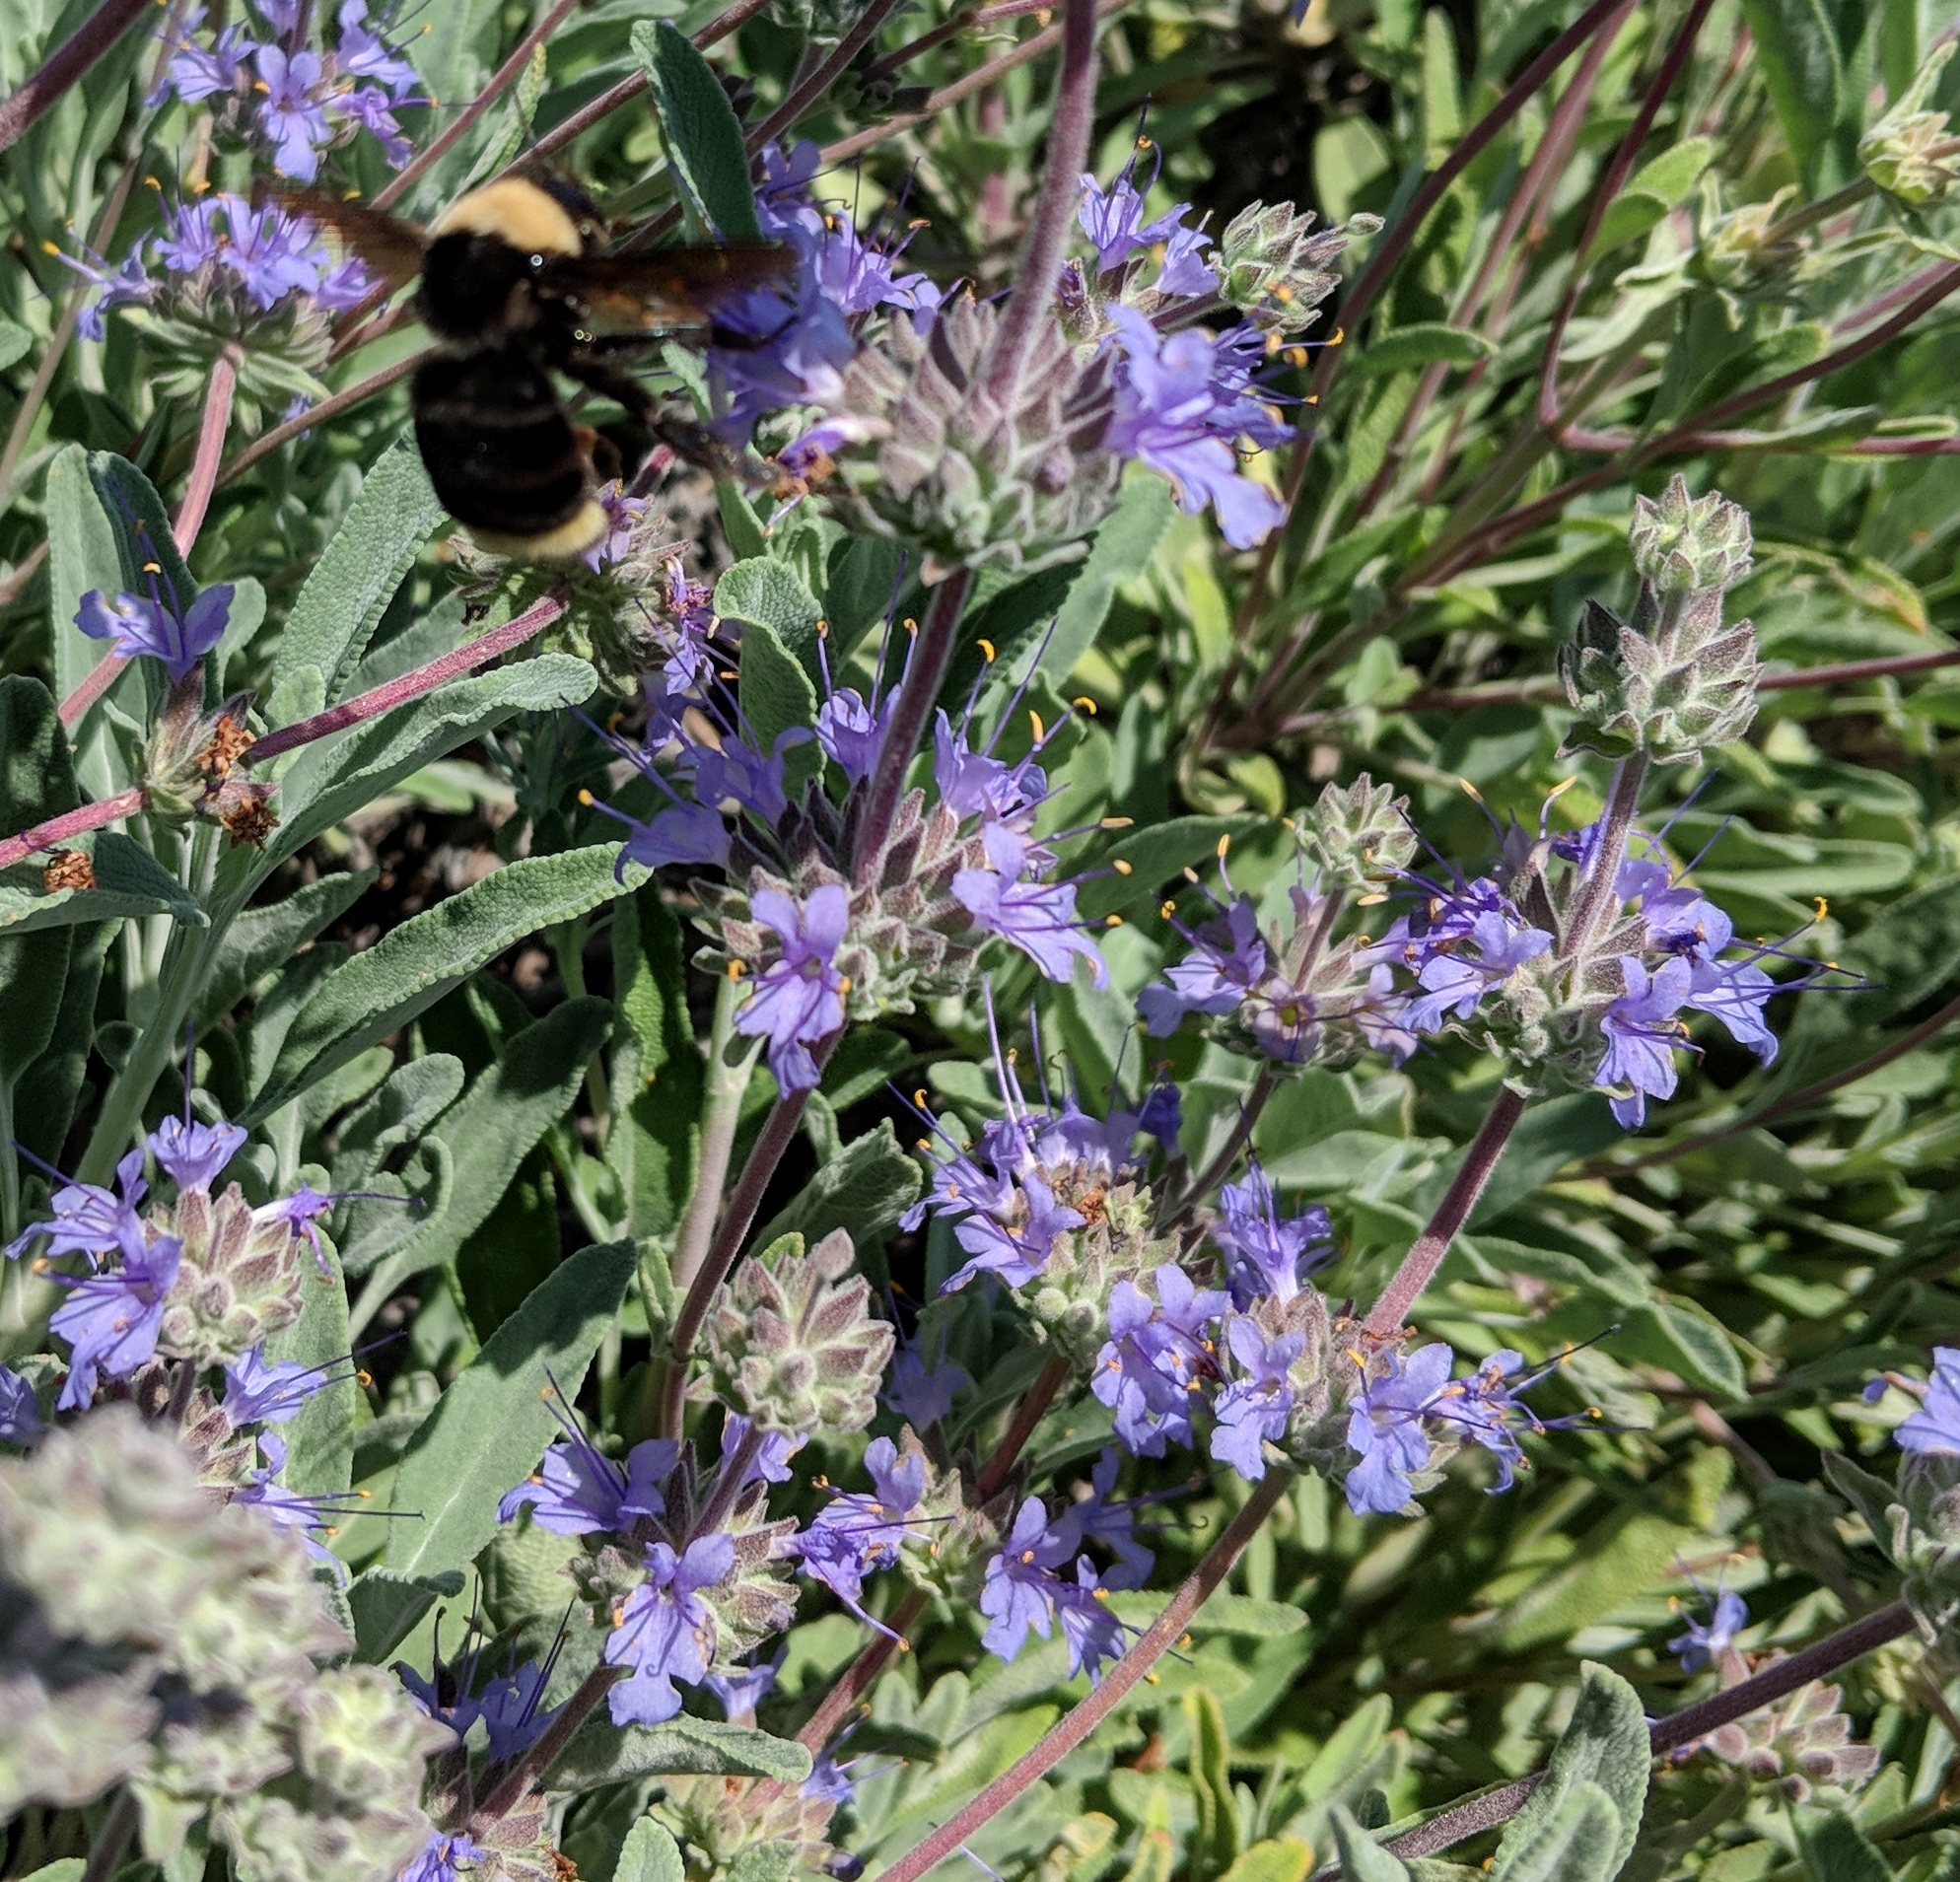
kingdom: Animalia
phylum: Arthropoda
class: Insecta
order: Hymenoptera
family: Apidae
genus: Bombus
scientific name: Bombus californicus
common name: California bumble bee
